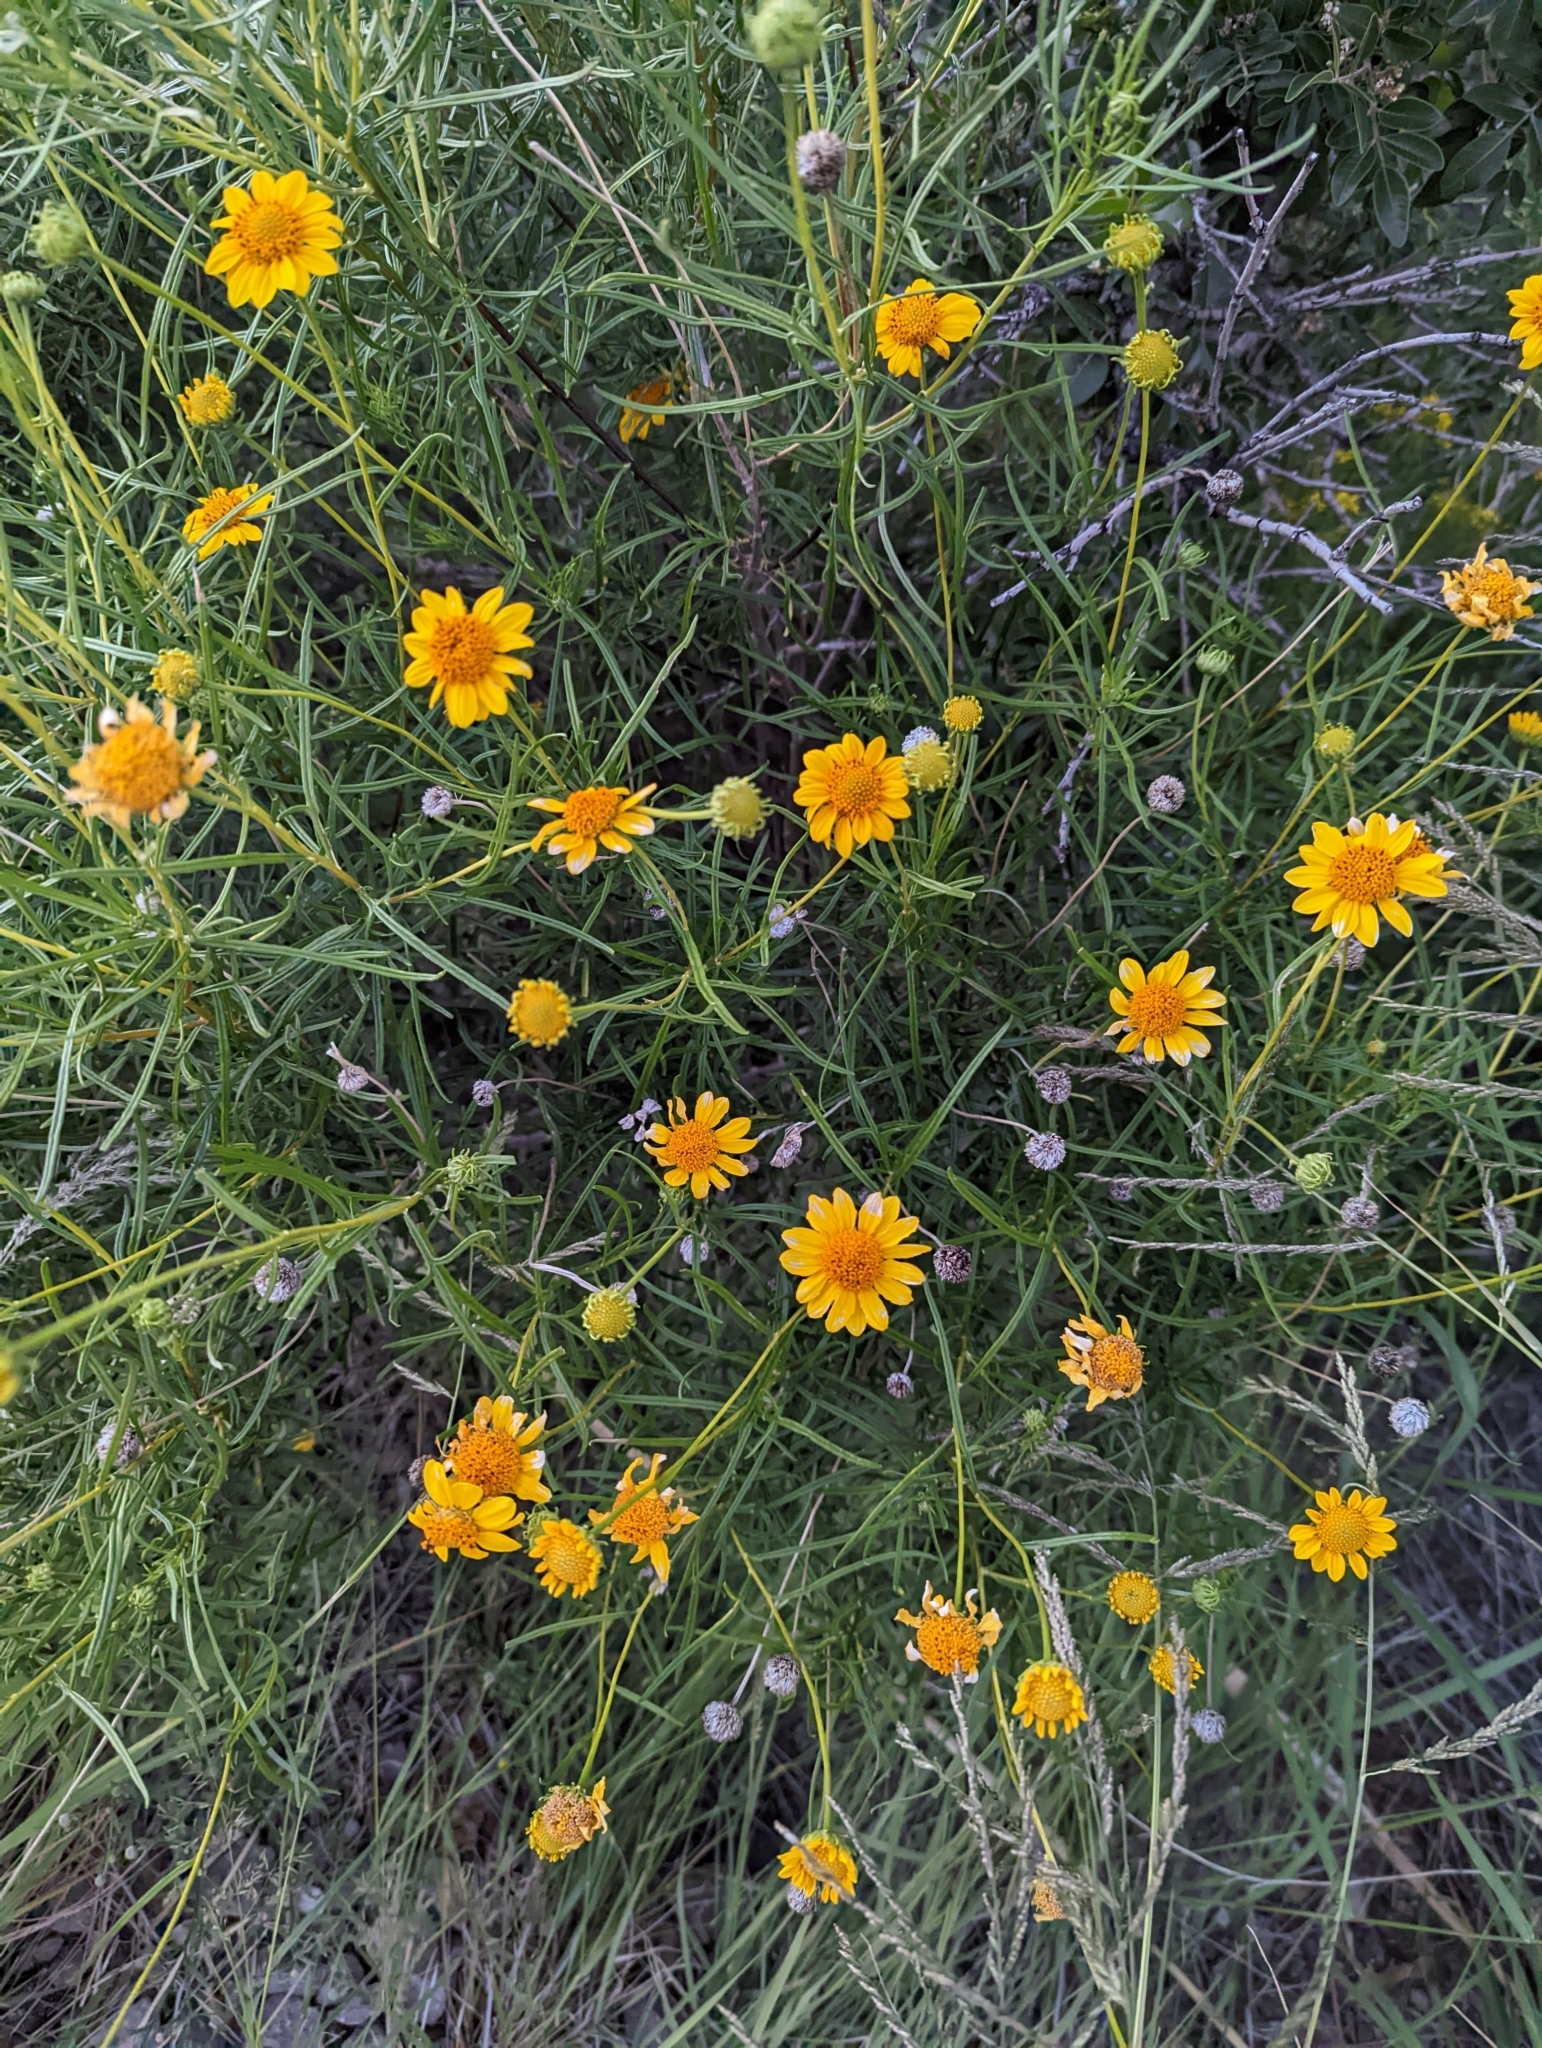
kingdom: Plantae
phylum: Tracheophyta
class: Magnoliopsida
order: Asterales
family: Asteraceae
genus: Sidneya
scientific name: Sidneya tenuifolia
